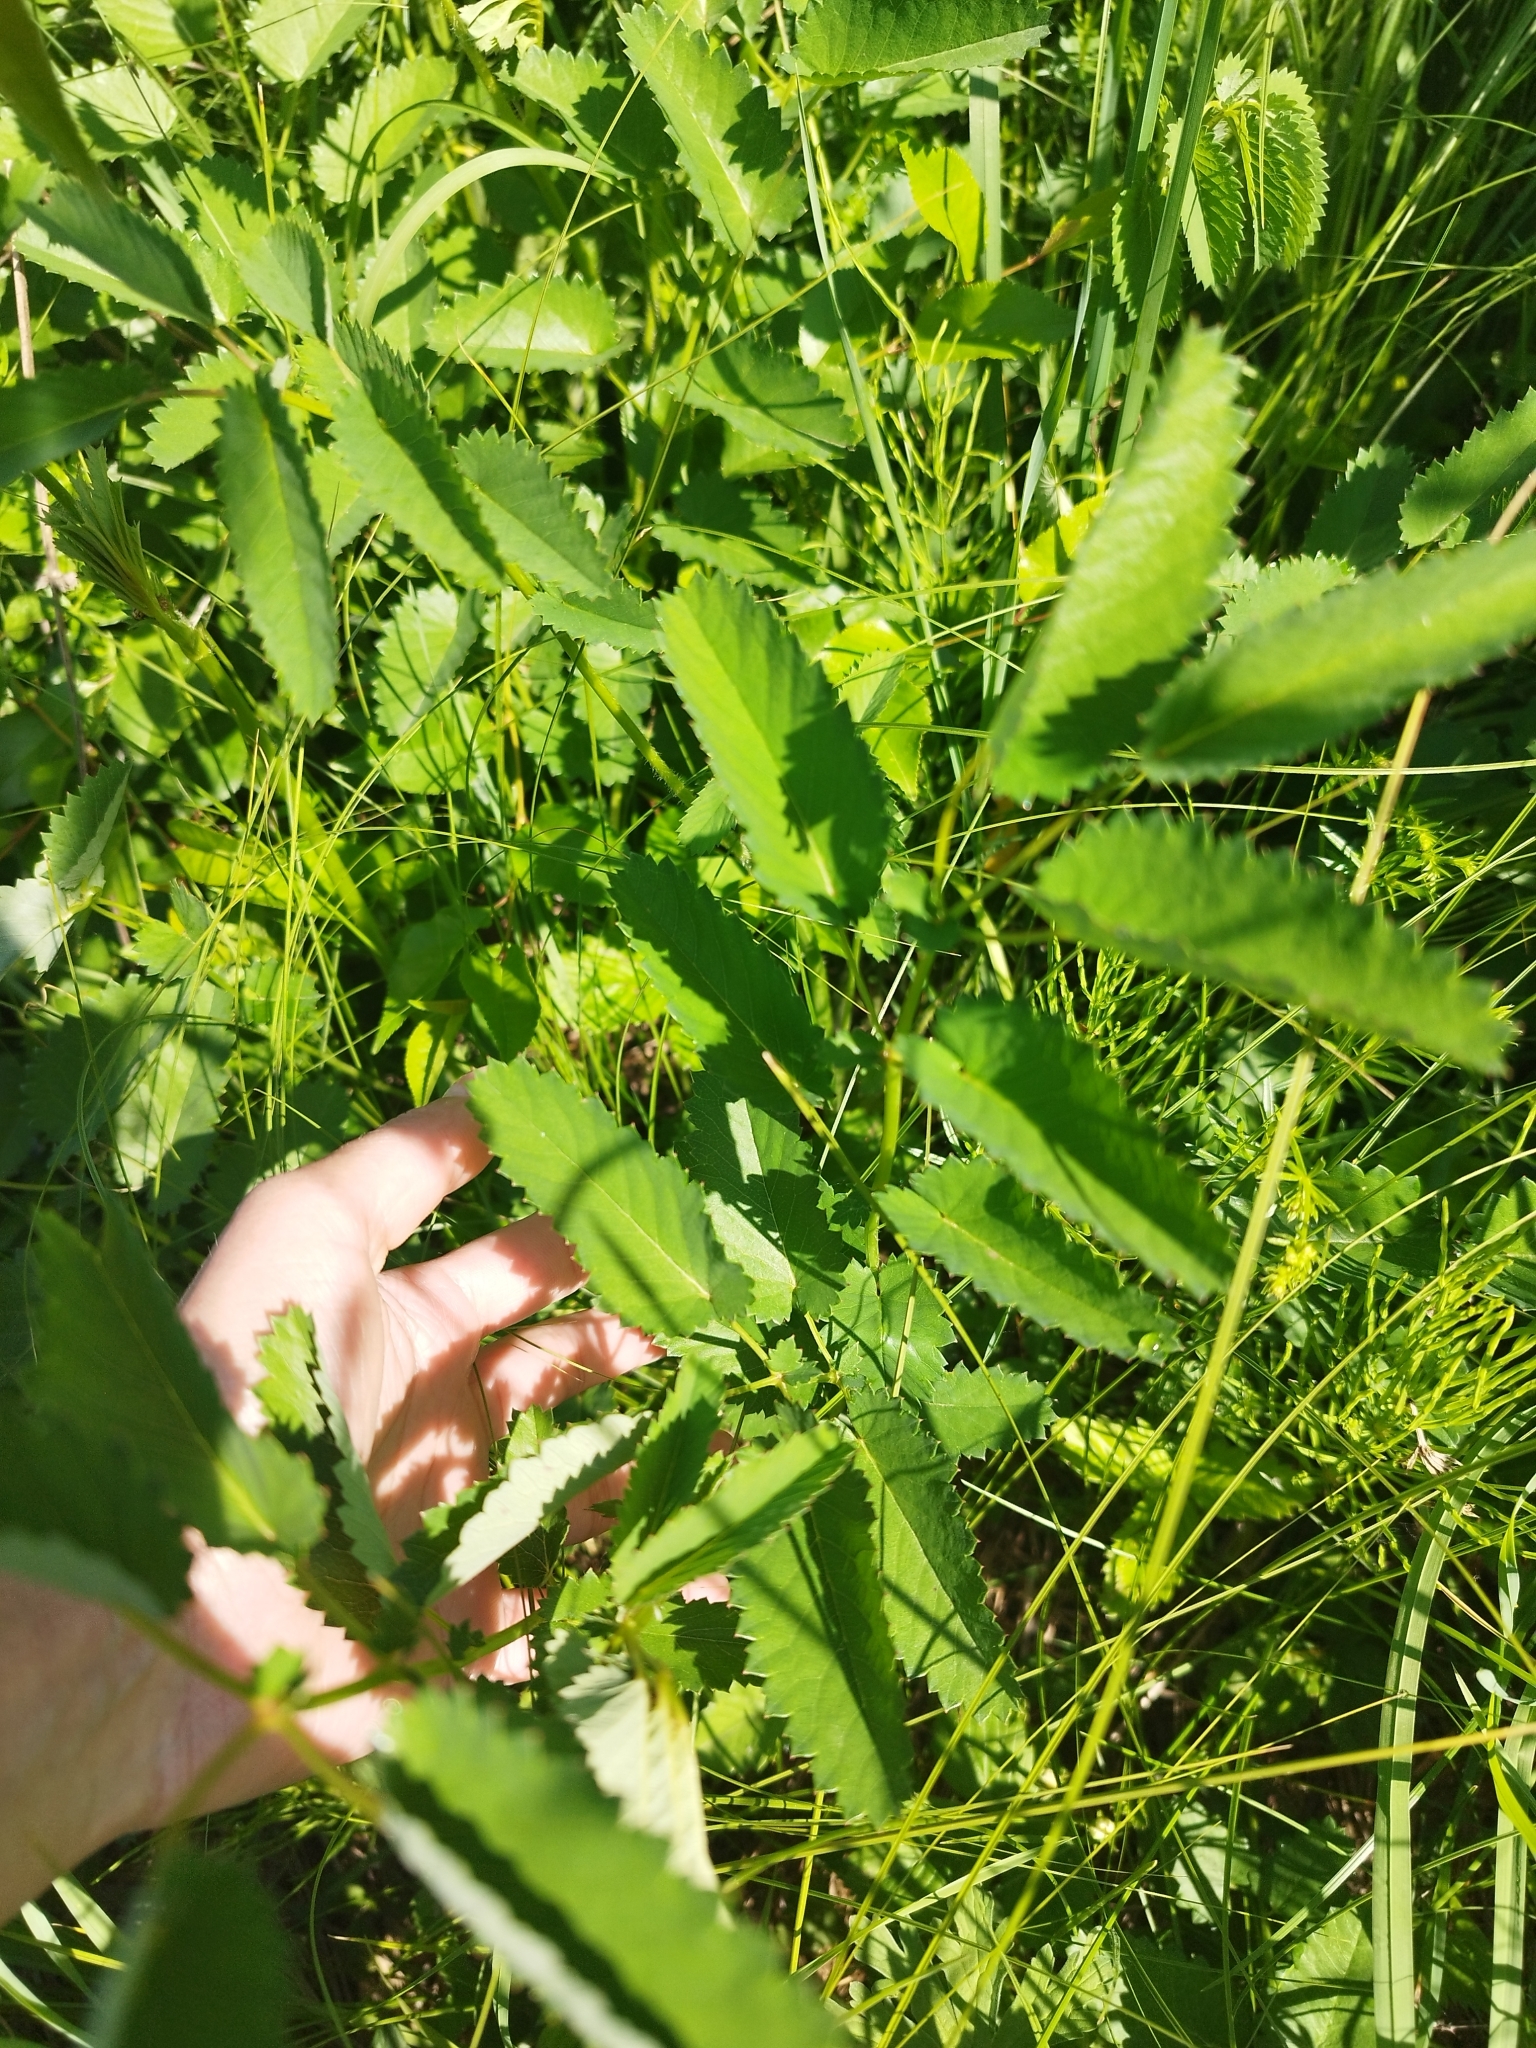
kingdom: Plantae
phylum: Tracheophyta
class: Magnoliopsida
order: Rosales
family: Rosaceae
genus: Sanguisorba
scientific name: Sanguisorba officinalis
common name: Great burnet
